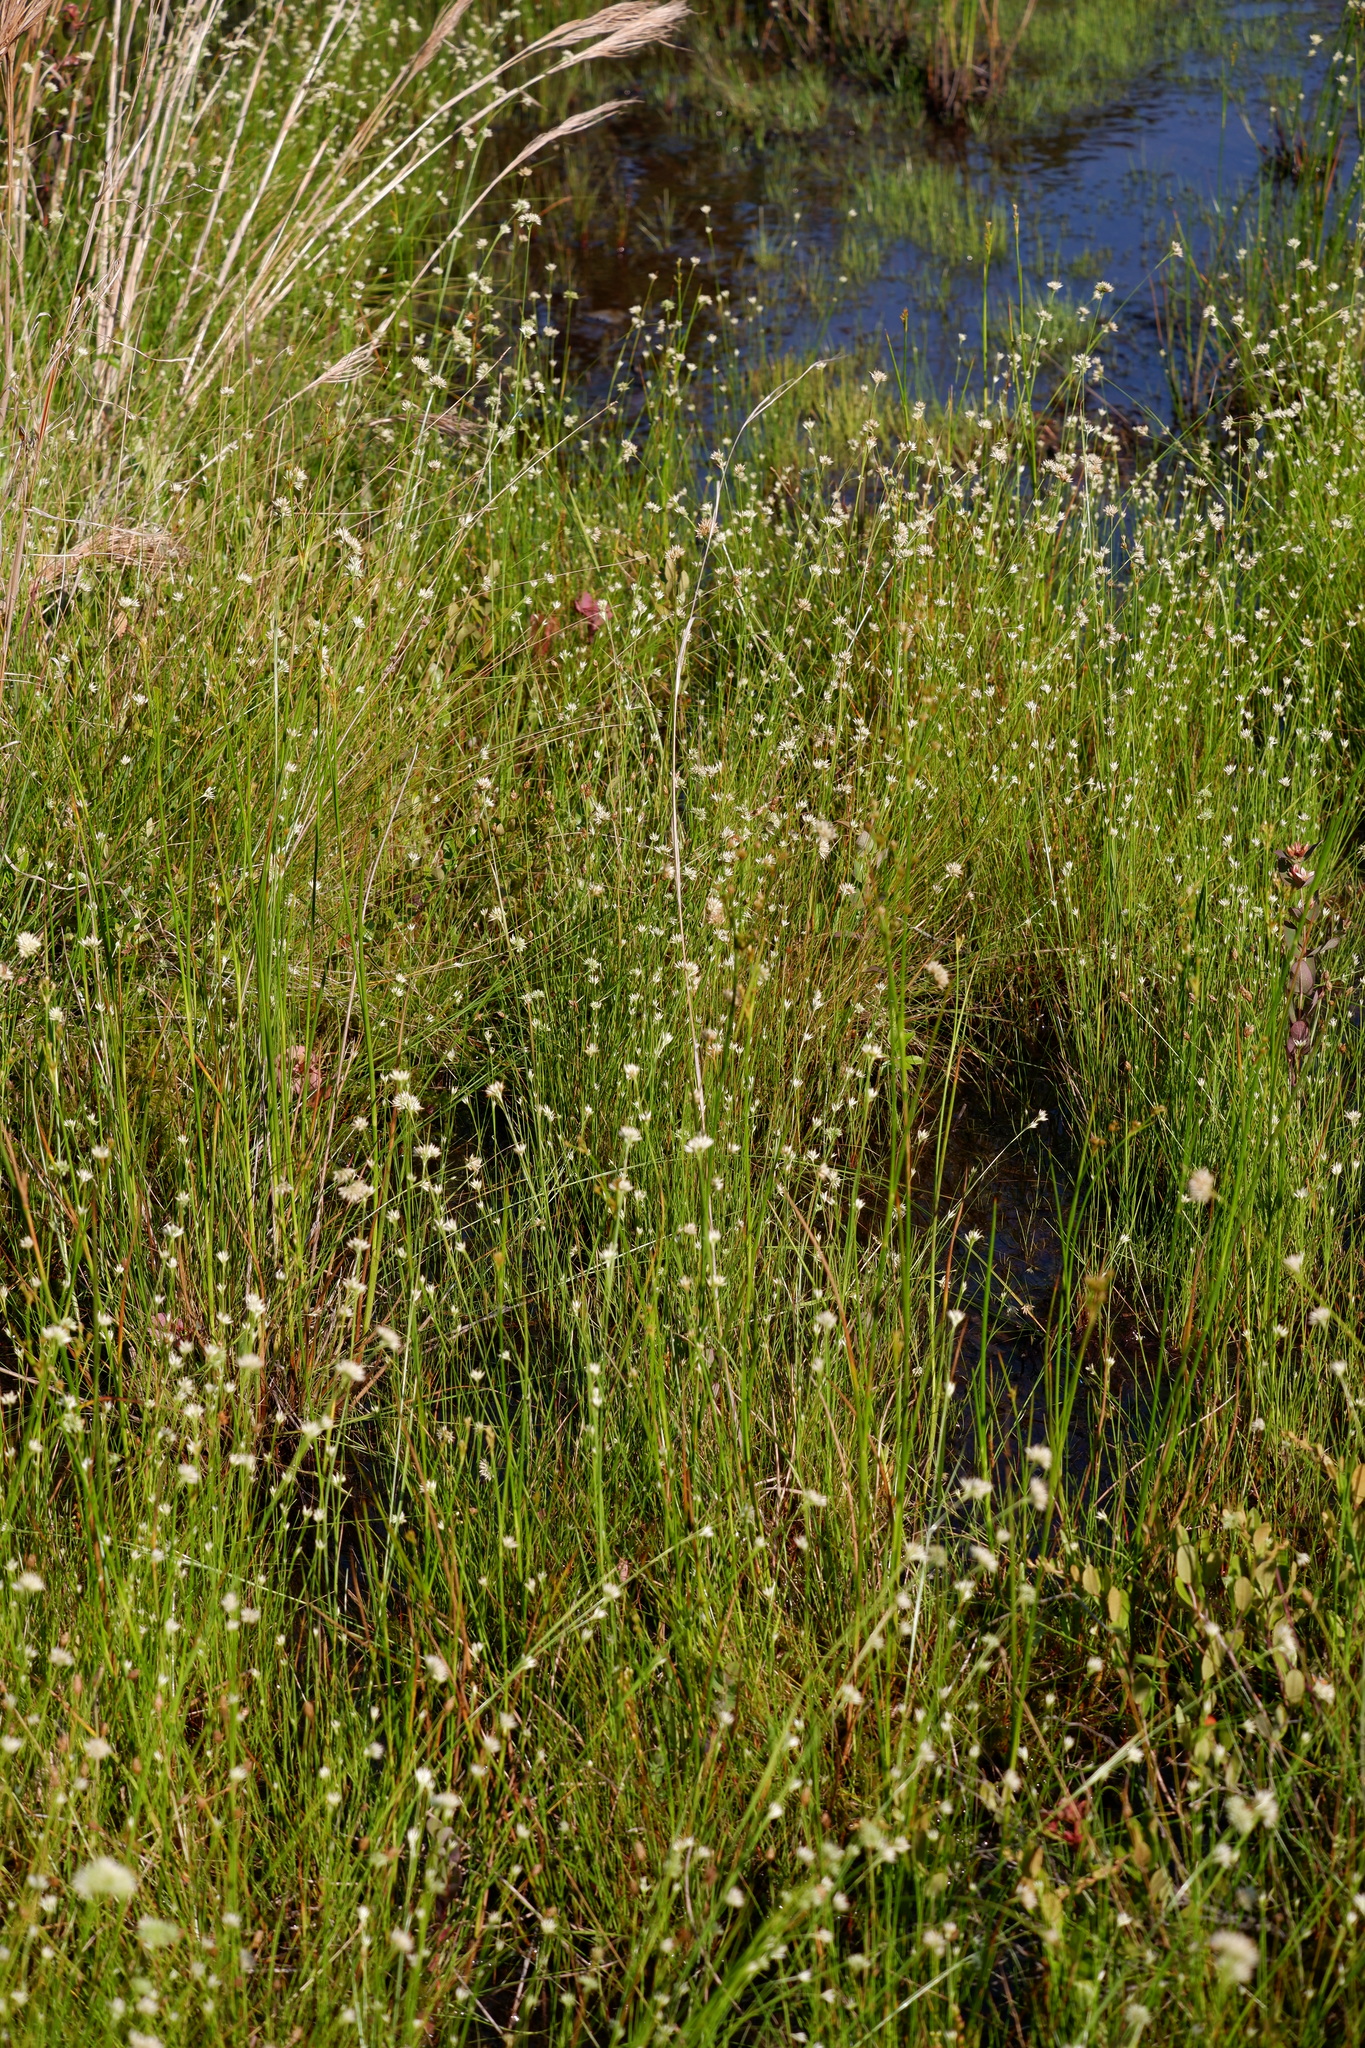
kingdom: Plantae
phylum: Tracheophyta
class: Liliopsida
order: Poales
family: Cyperaceae
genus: Rhynchospora
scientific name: Rhynchospora alba
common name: White beak-sedge
